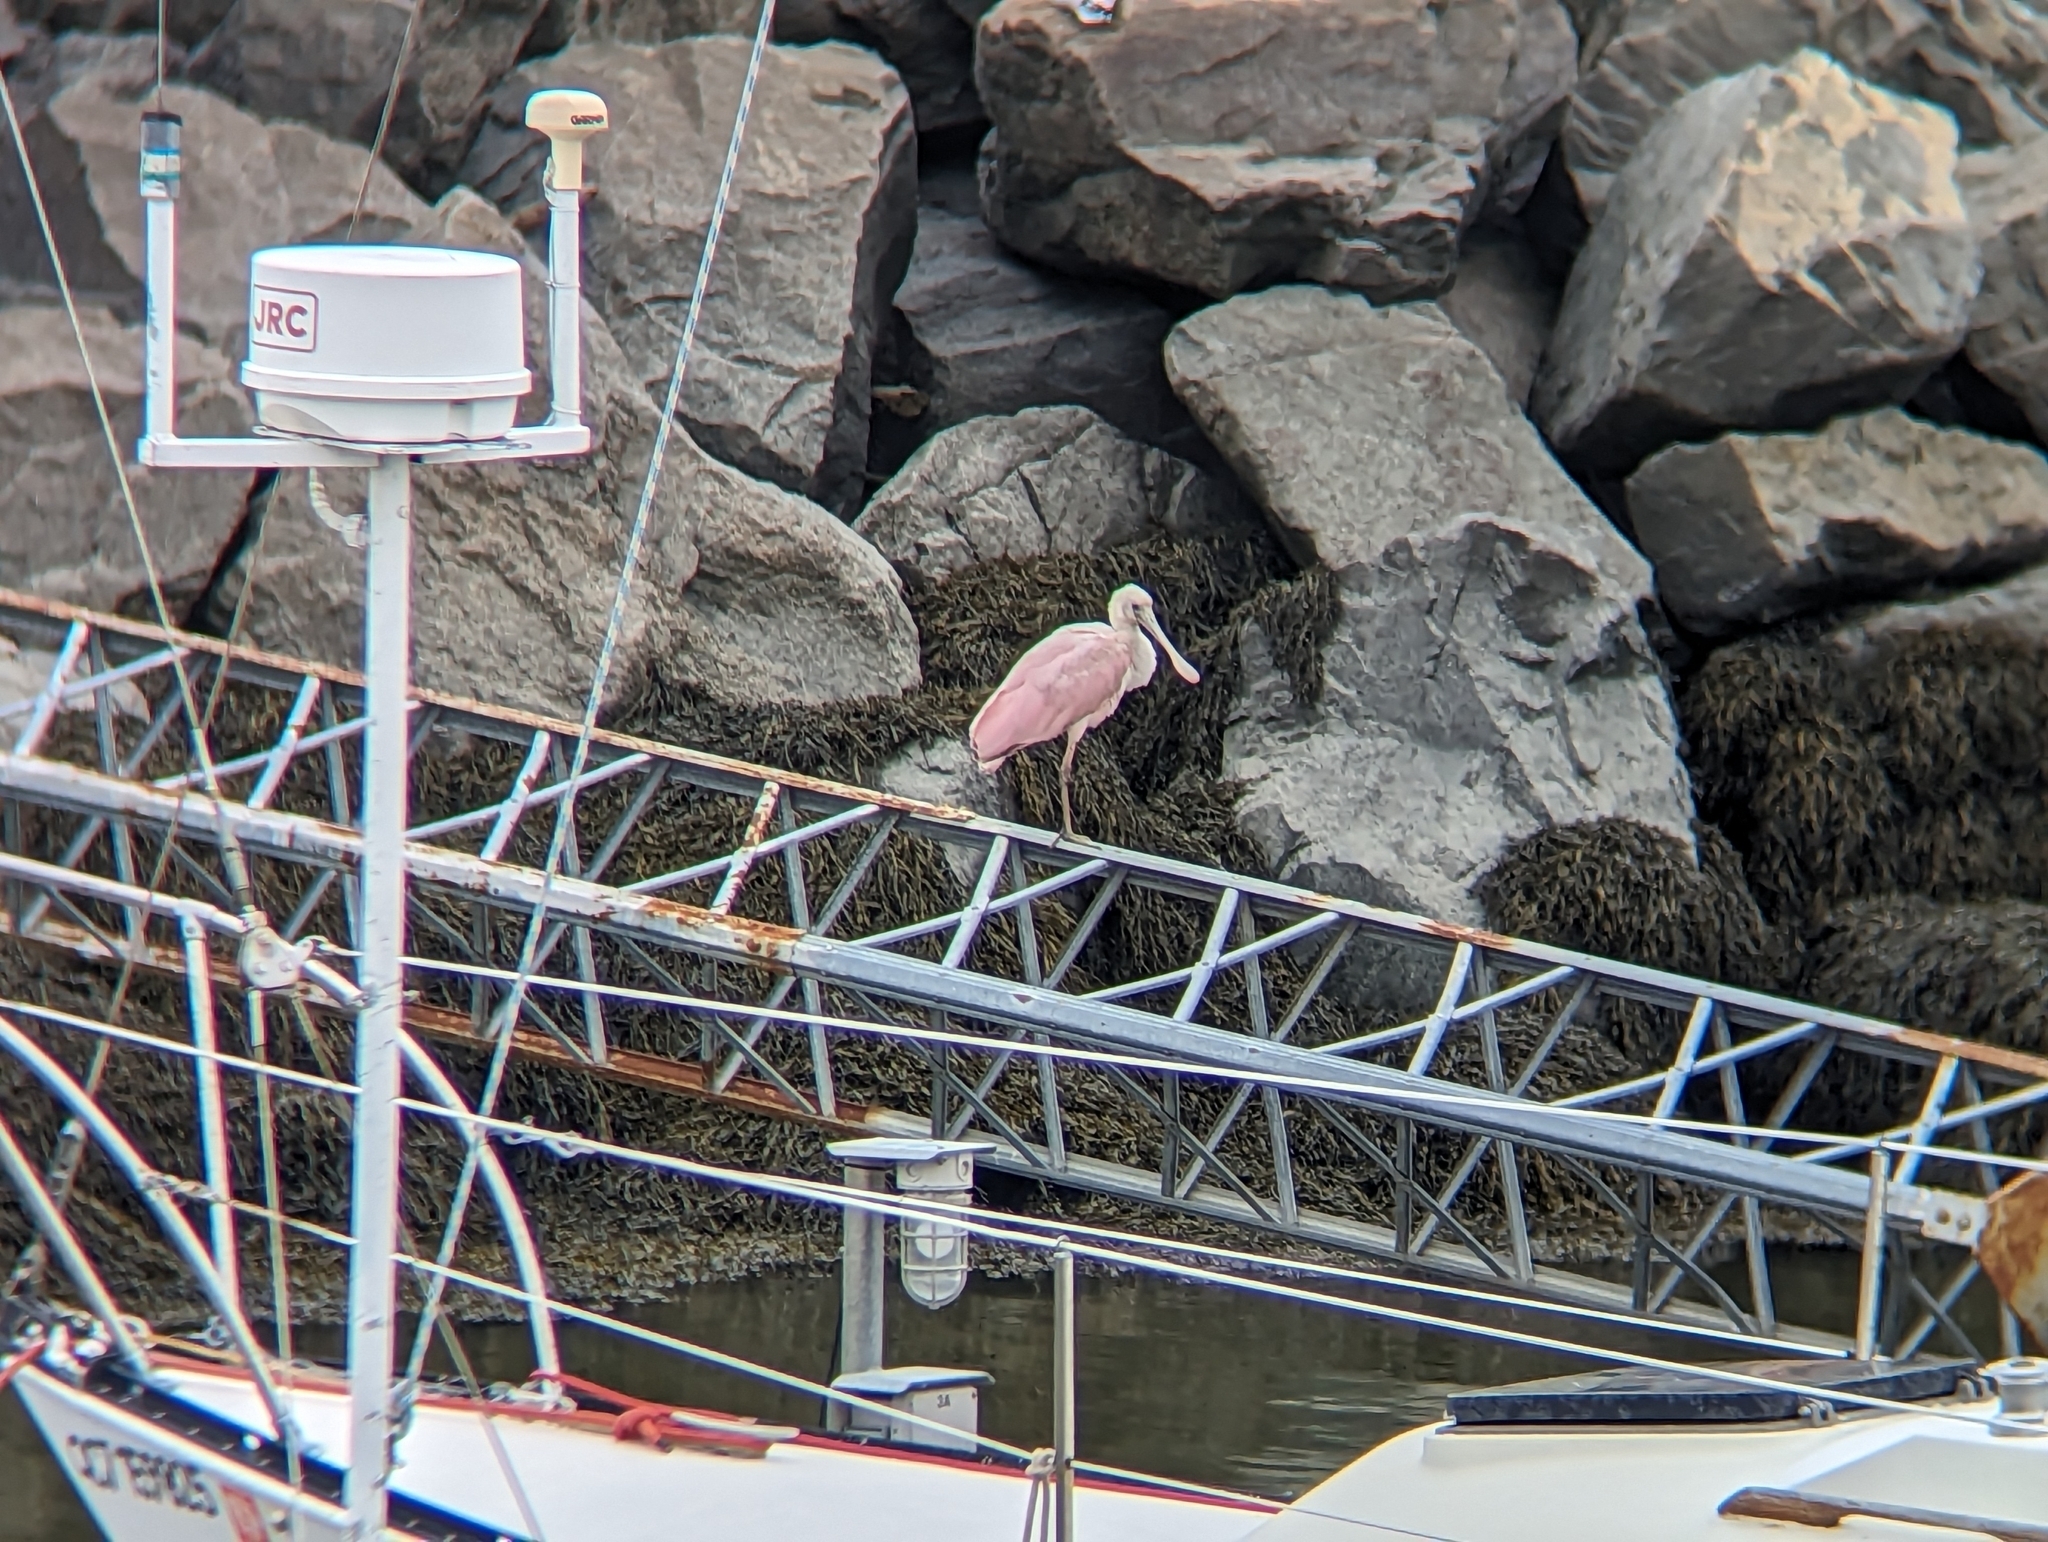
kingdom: Animalia
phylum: Chordata
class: Aves
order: Pelecaniformes
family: Threskiornithidae
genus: Platalea
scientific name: Platalea ajaja
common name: Roseate spoonbill
